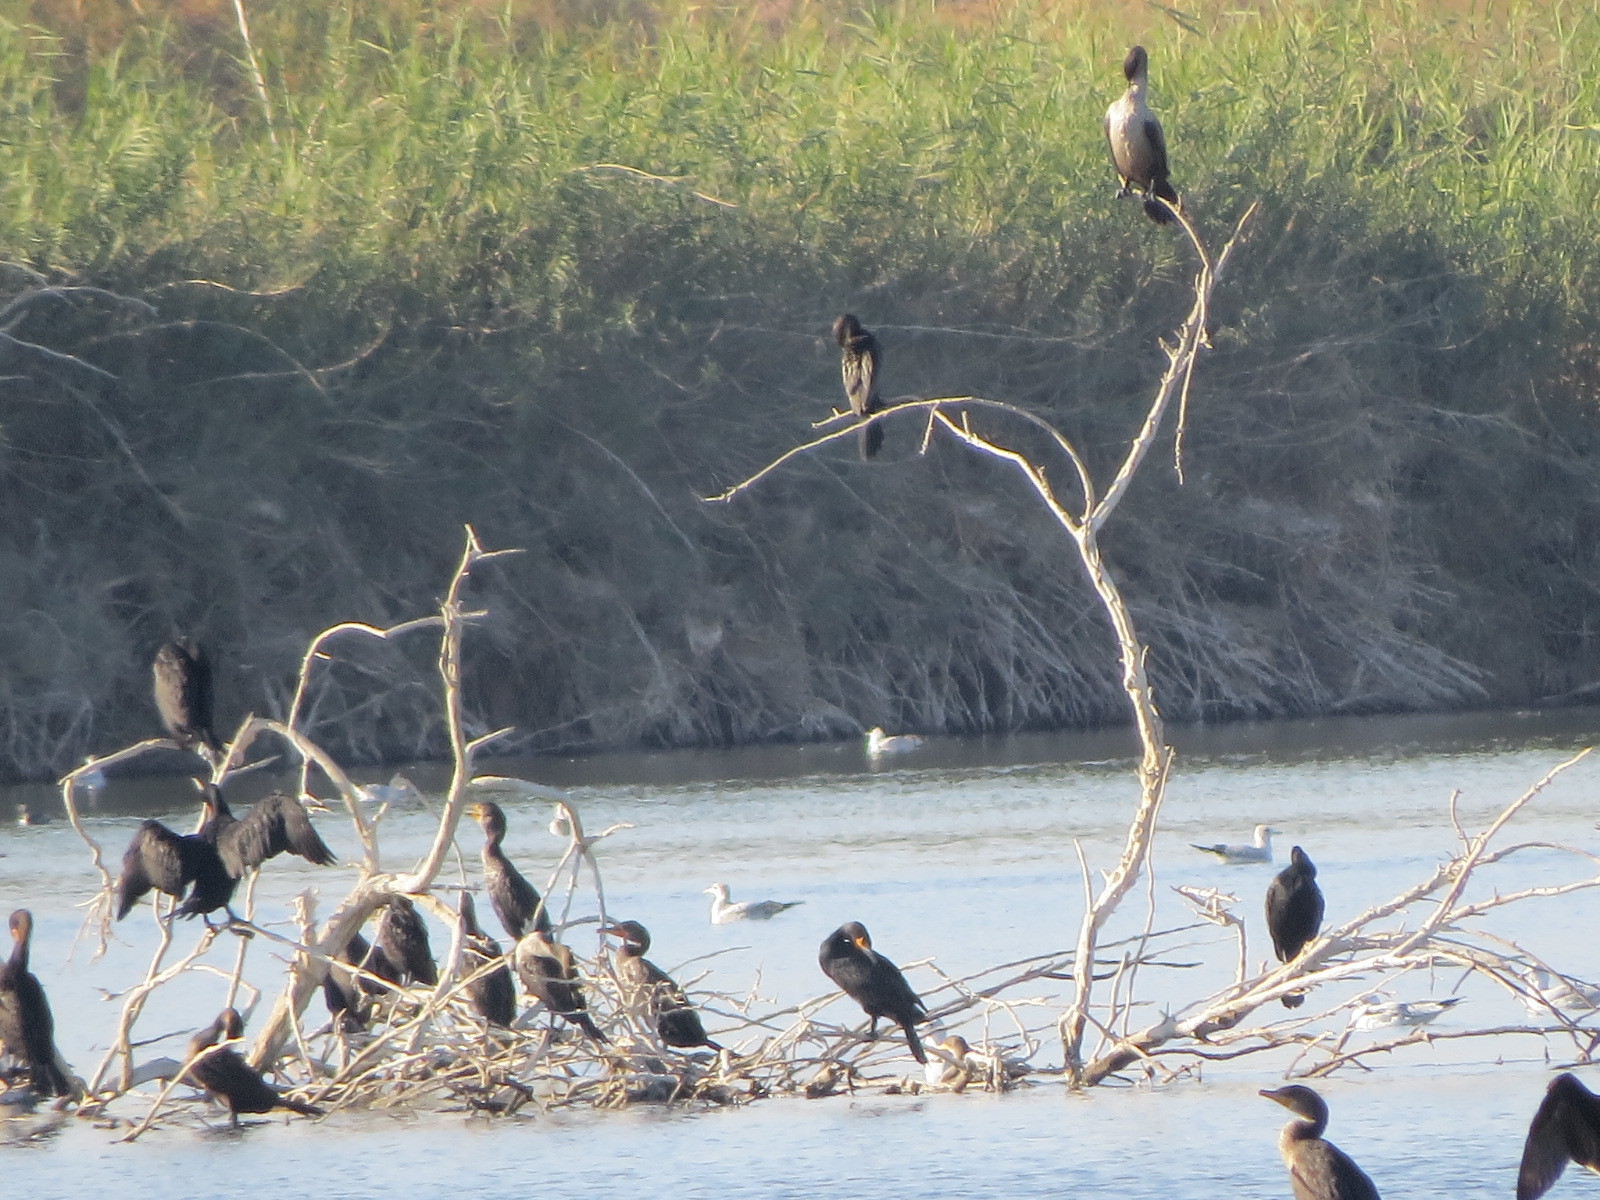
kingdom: Animalia
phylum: Chordata
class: Aves
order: Suliformes
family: Phalacrocoracidae
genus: Phalacrocorax
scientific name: Phalacrocorax auritus
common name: Double-crested cormorant
